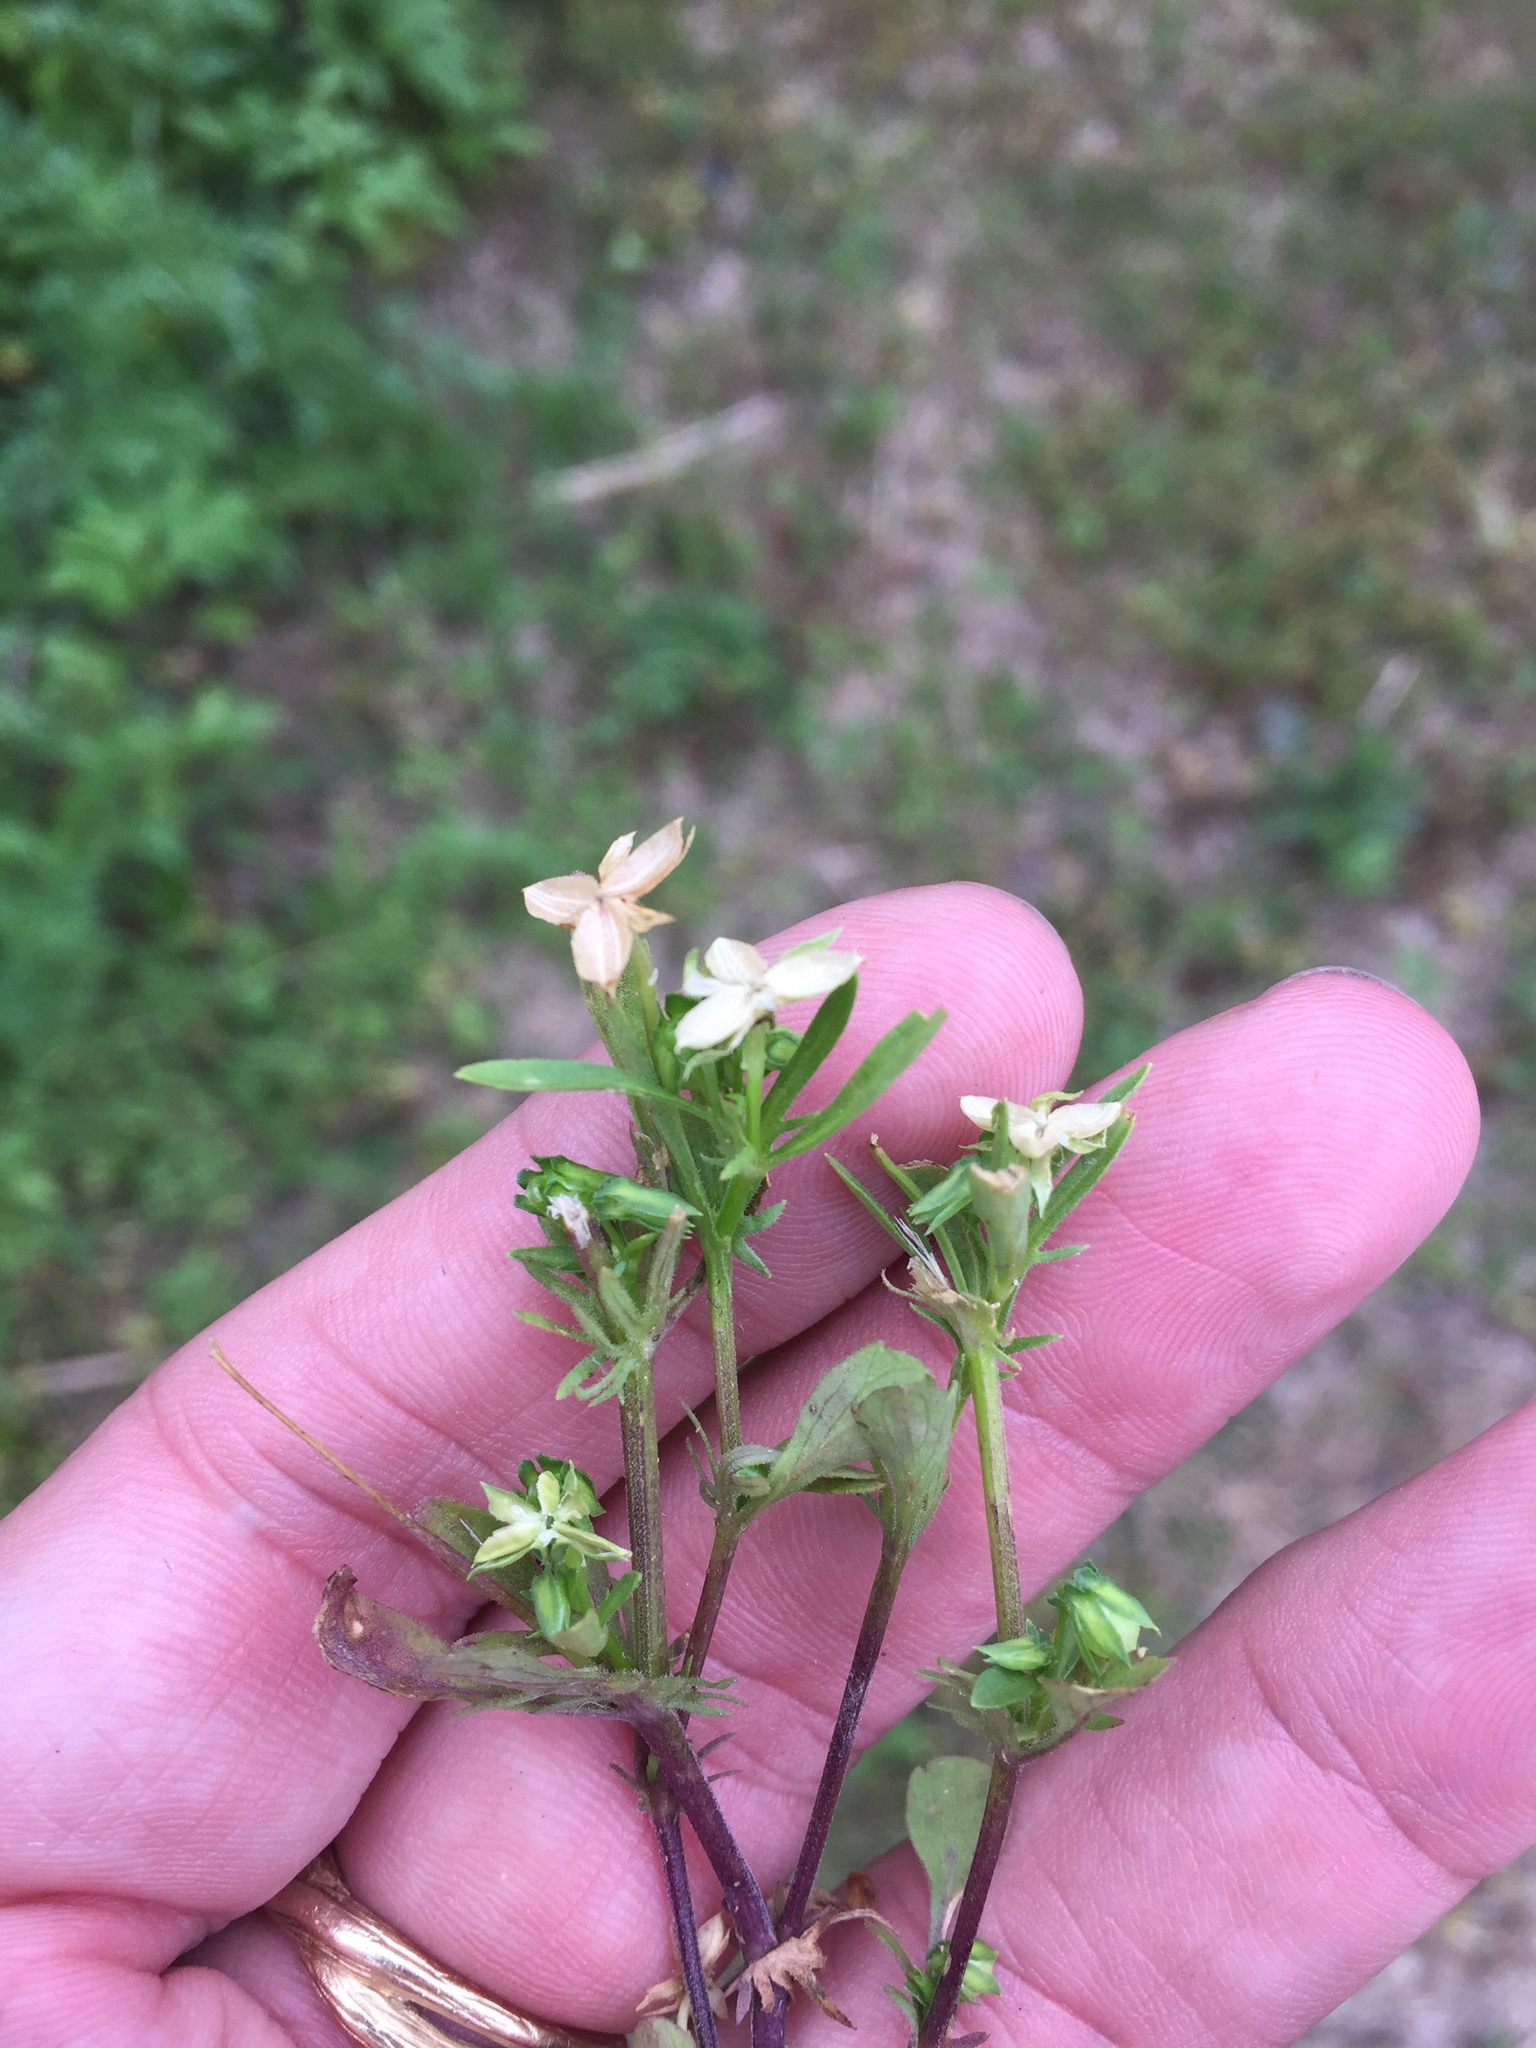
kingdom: Plantae
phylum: Tracheophyta
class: Magnoliopsida
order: Malpighiales
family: Violaceae
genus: Viola
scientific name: Viola rafinesquei
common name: American field pansy
